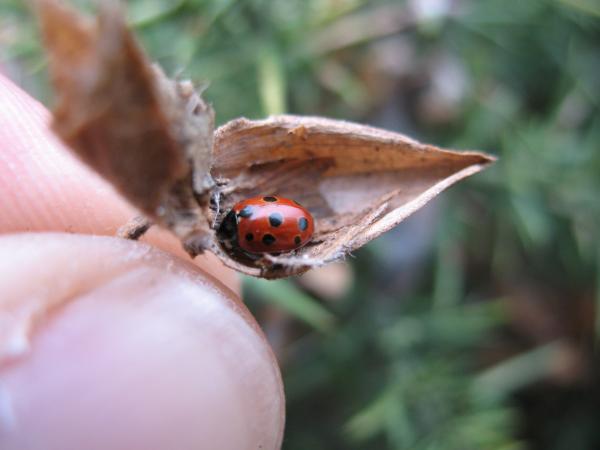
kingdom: Animalia
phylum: Arthropoda
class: Insecta
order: Coleoptera
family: Coccinellidae
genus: Coccinella
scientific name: Coccinella undecimpunctata
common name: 11-spot ladybird
